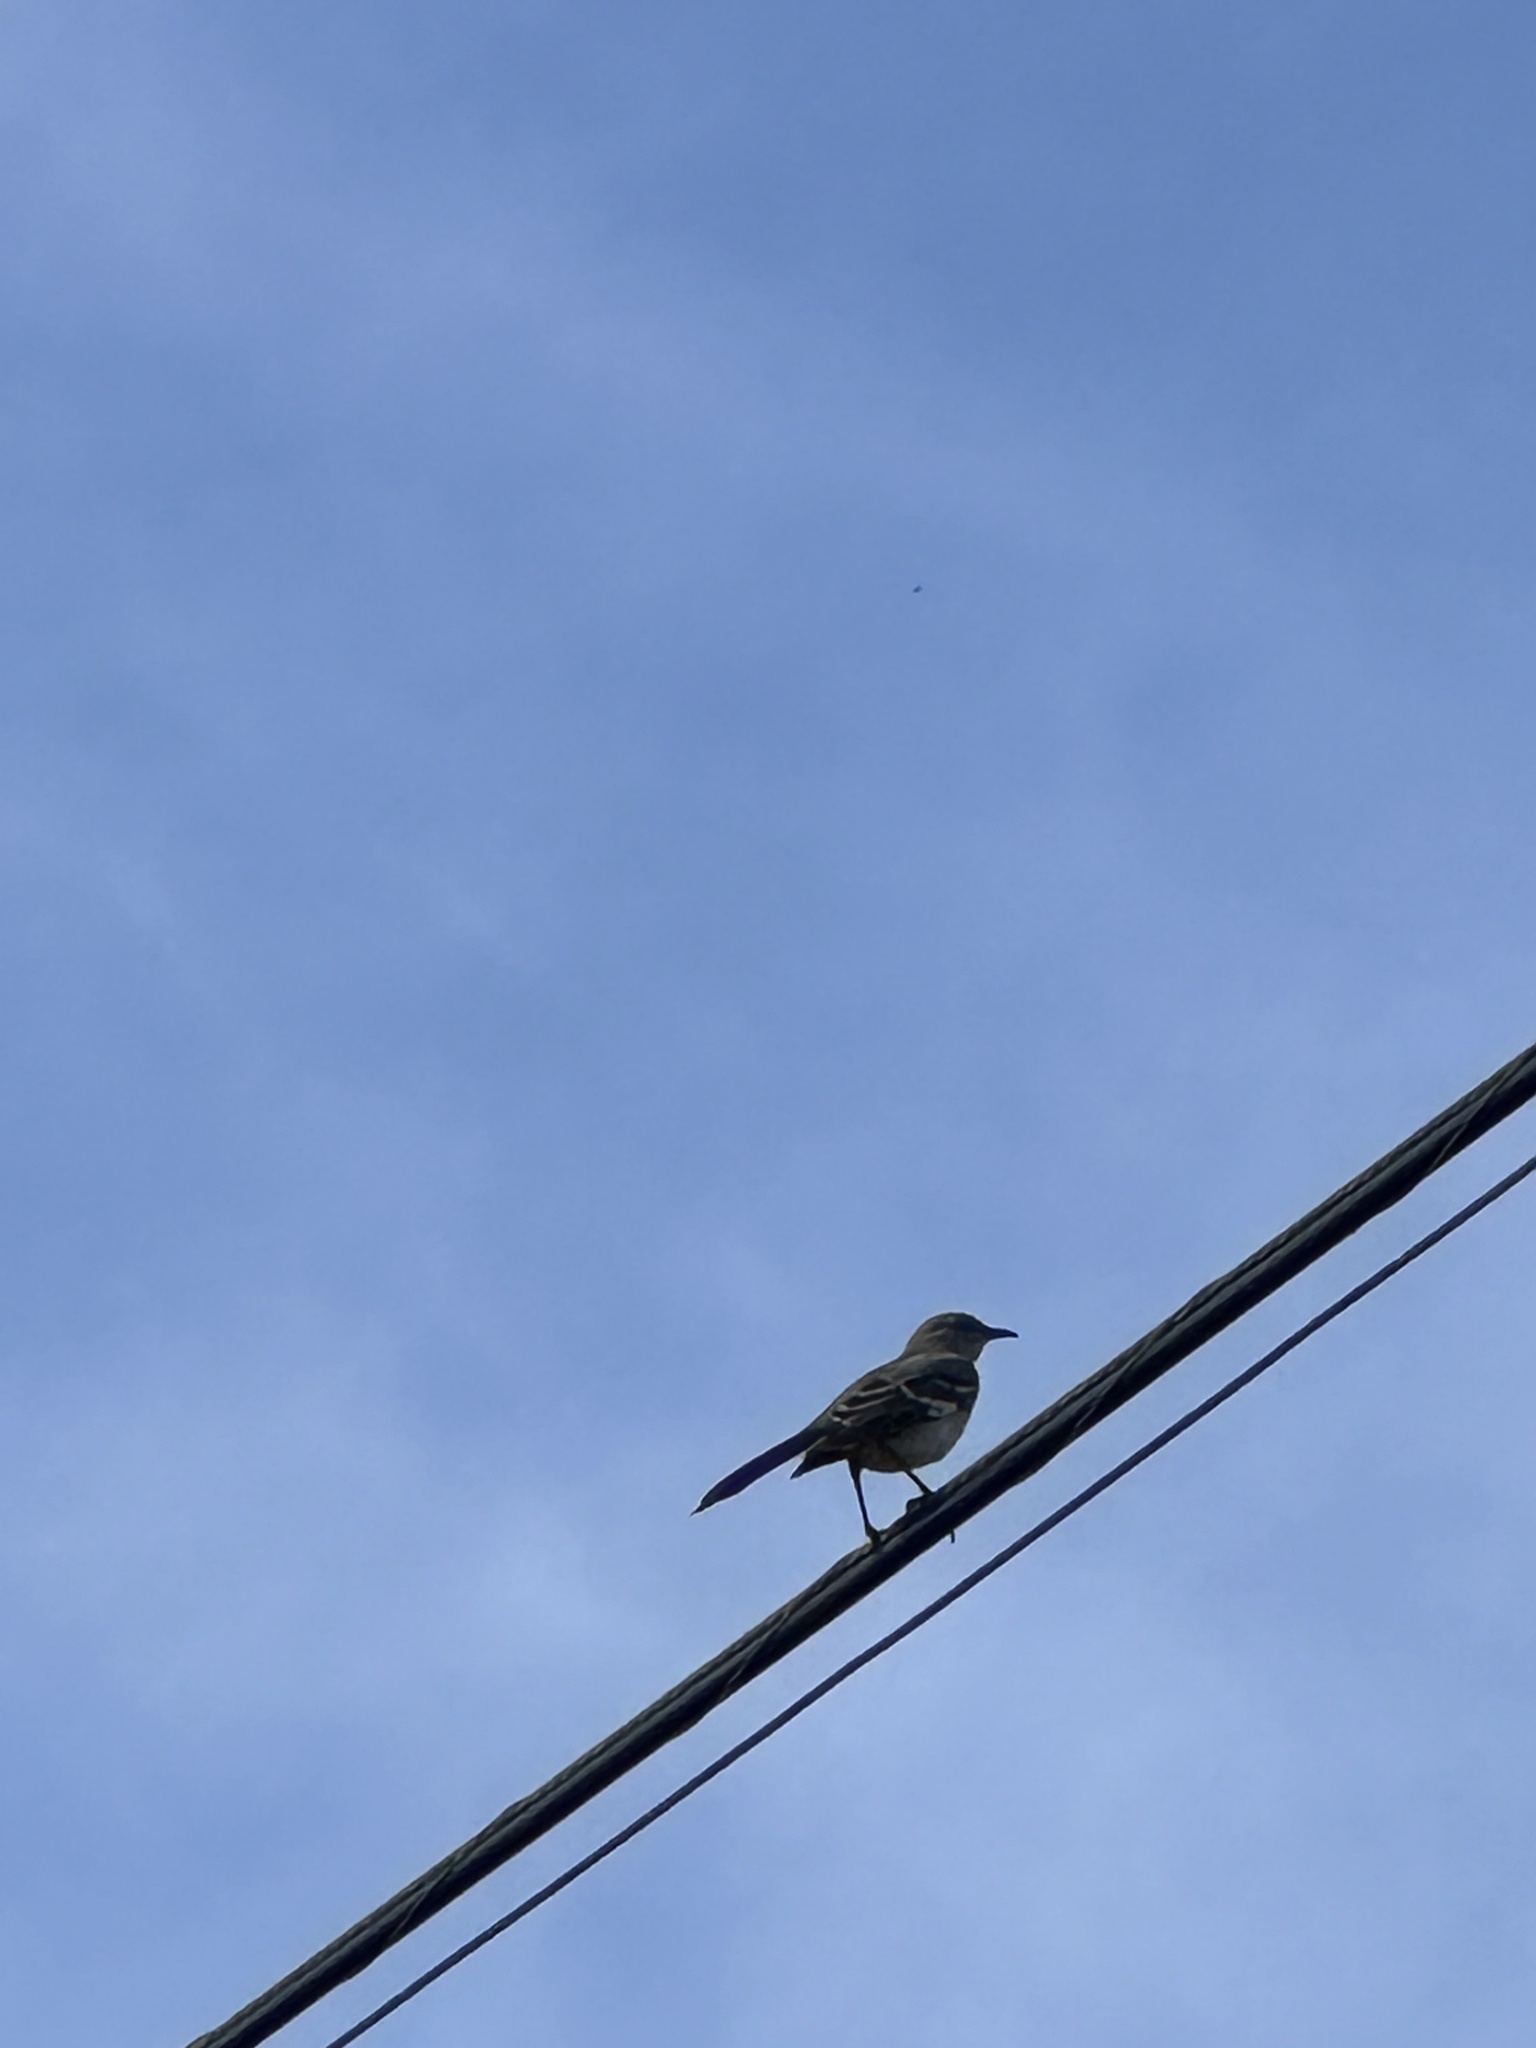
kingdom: Animalia
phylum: Chordata
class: Aves
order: Passeriformes
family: Mimidae
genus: Mimus
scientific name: Mimus polyglottos
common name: Northern mockingbird
